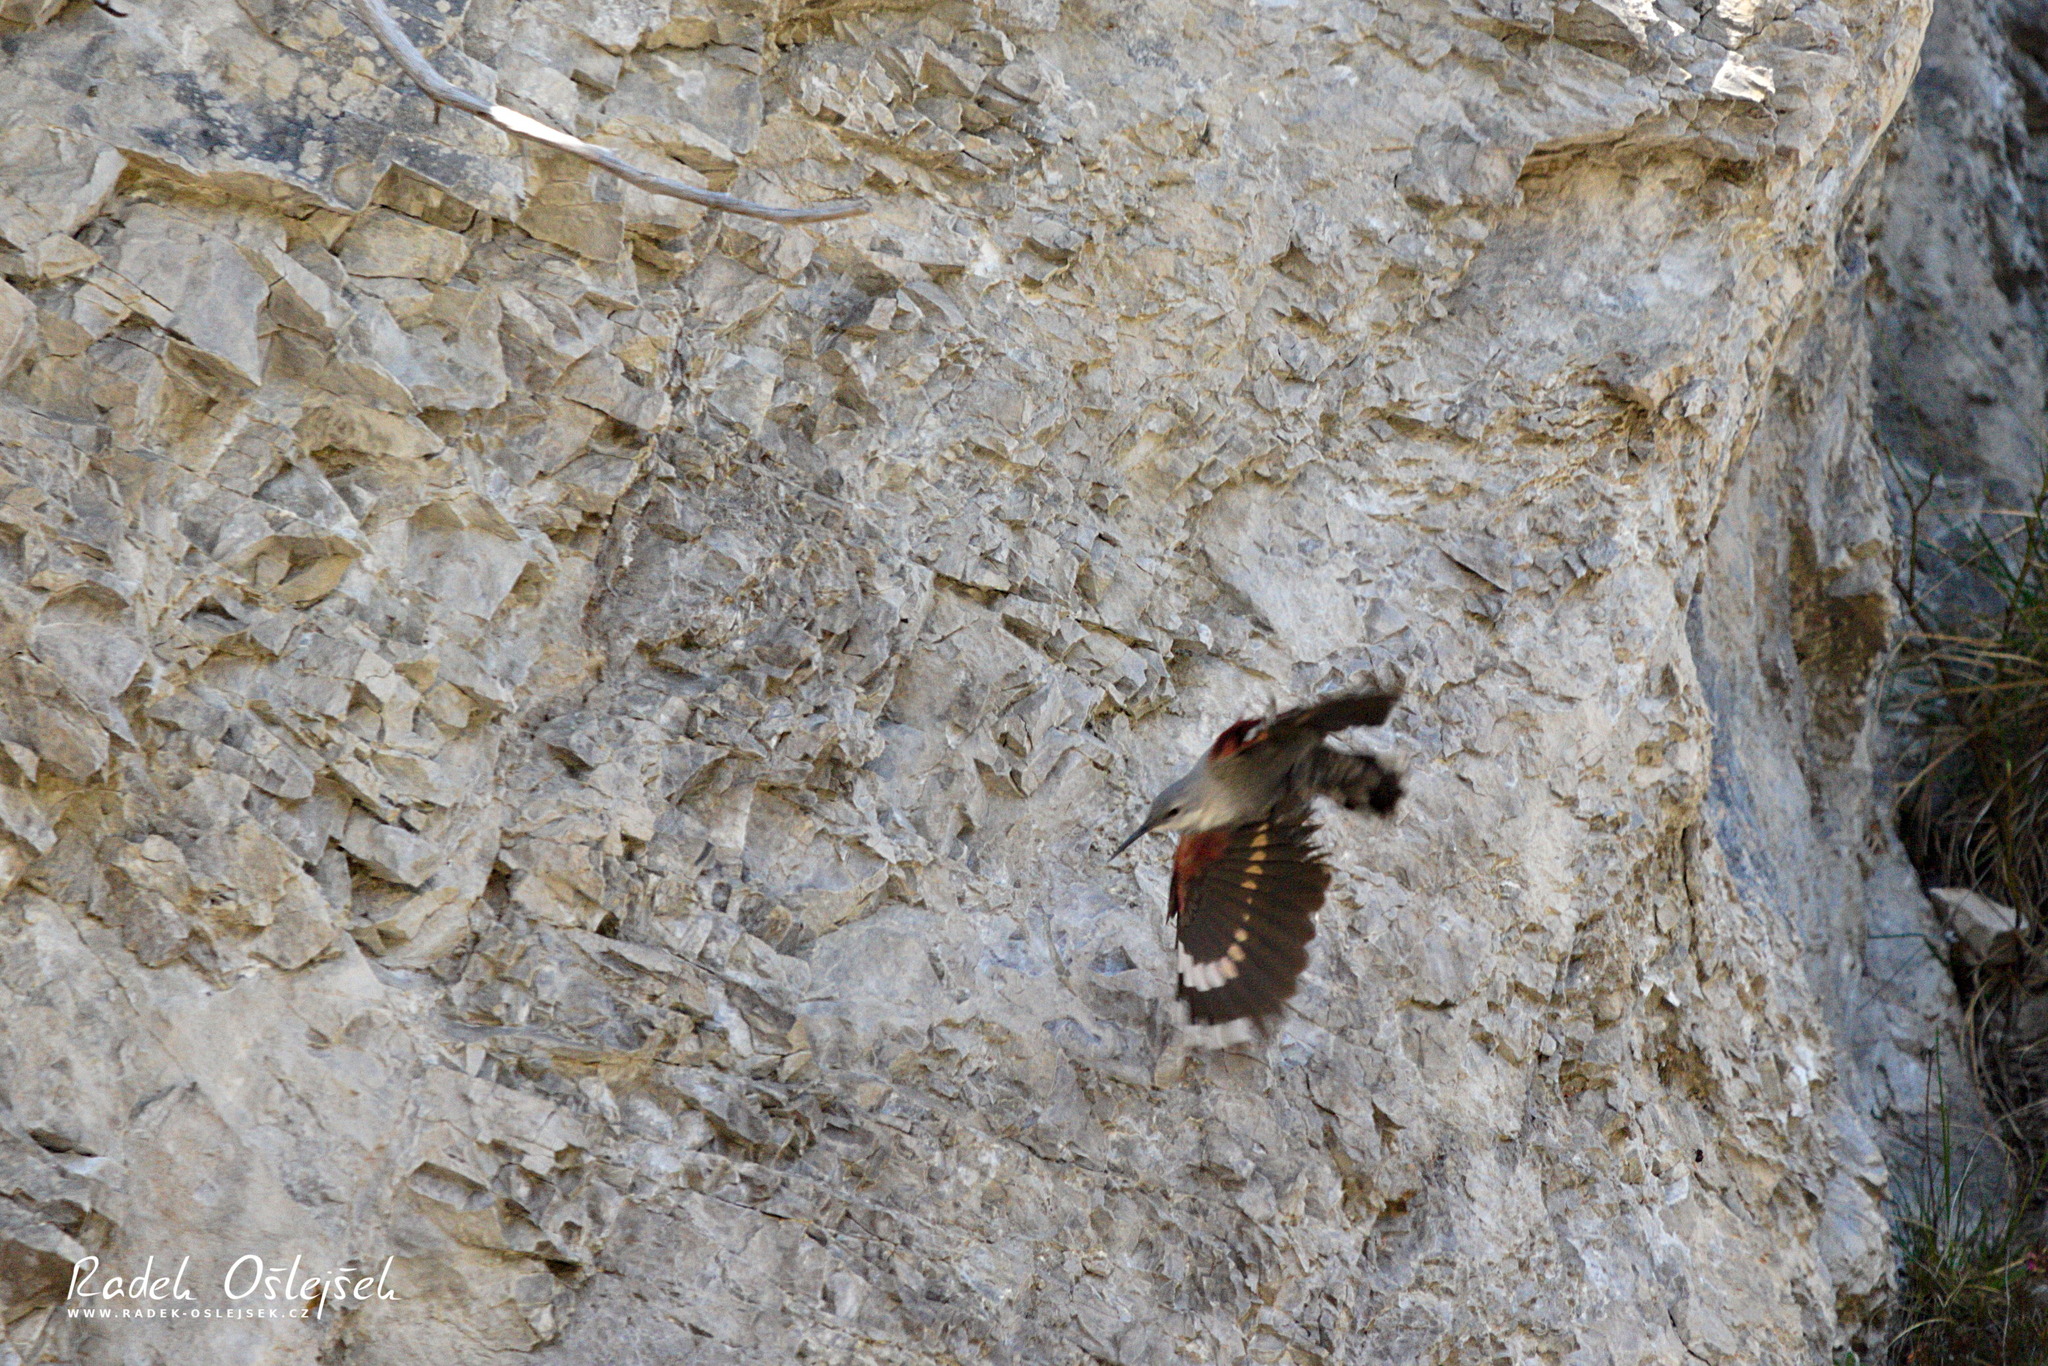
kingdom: Animalia
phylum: Chordata
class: Aves
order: Passeriformes
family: Tichodromidae
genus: Tichodroma
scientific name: Tichodroma muraria
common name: Wallcreeper
